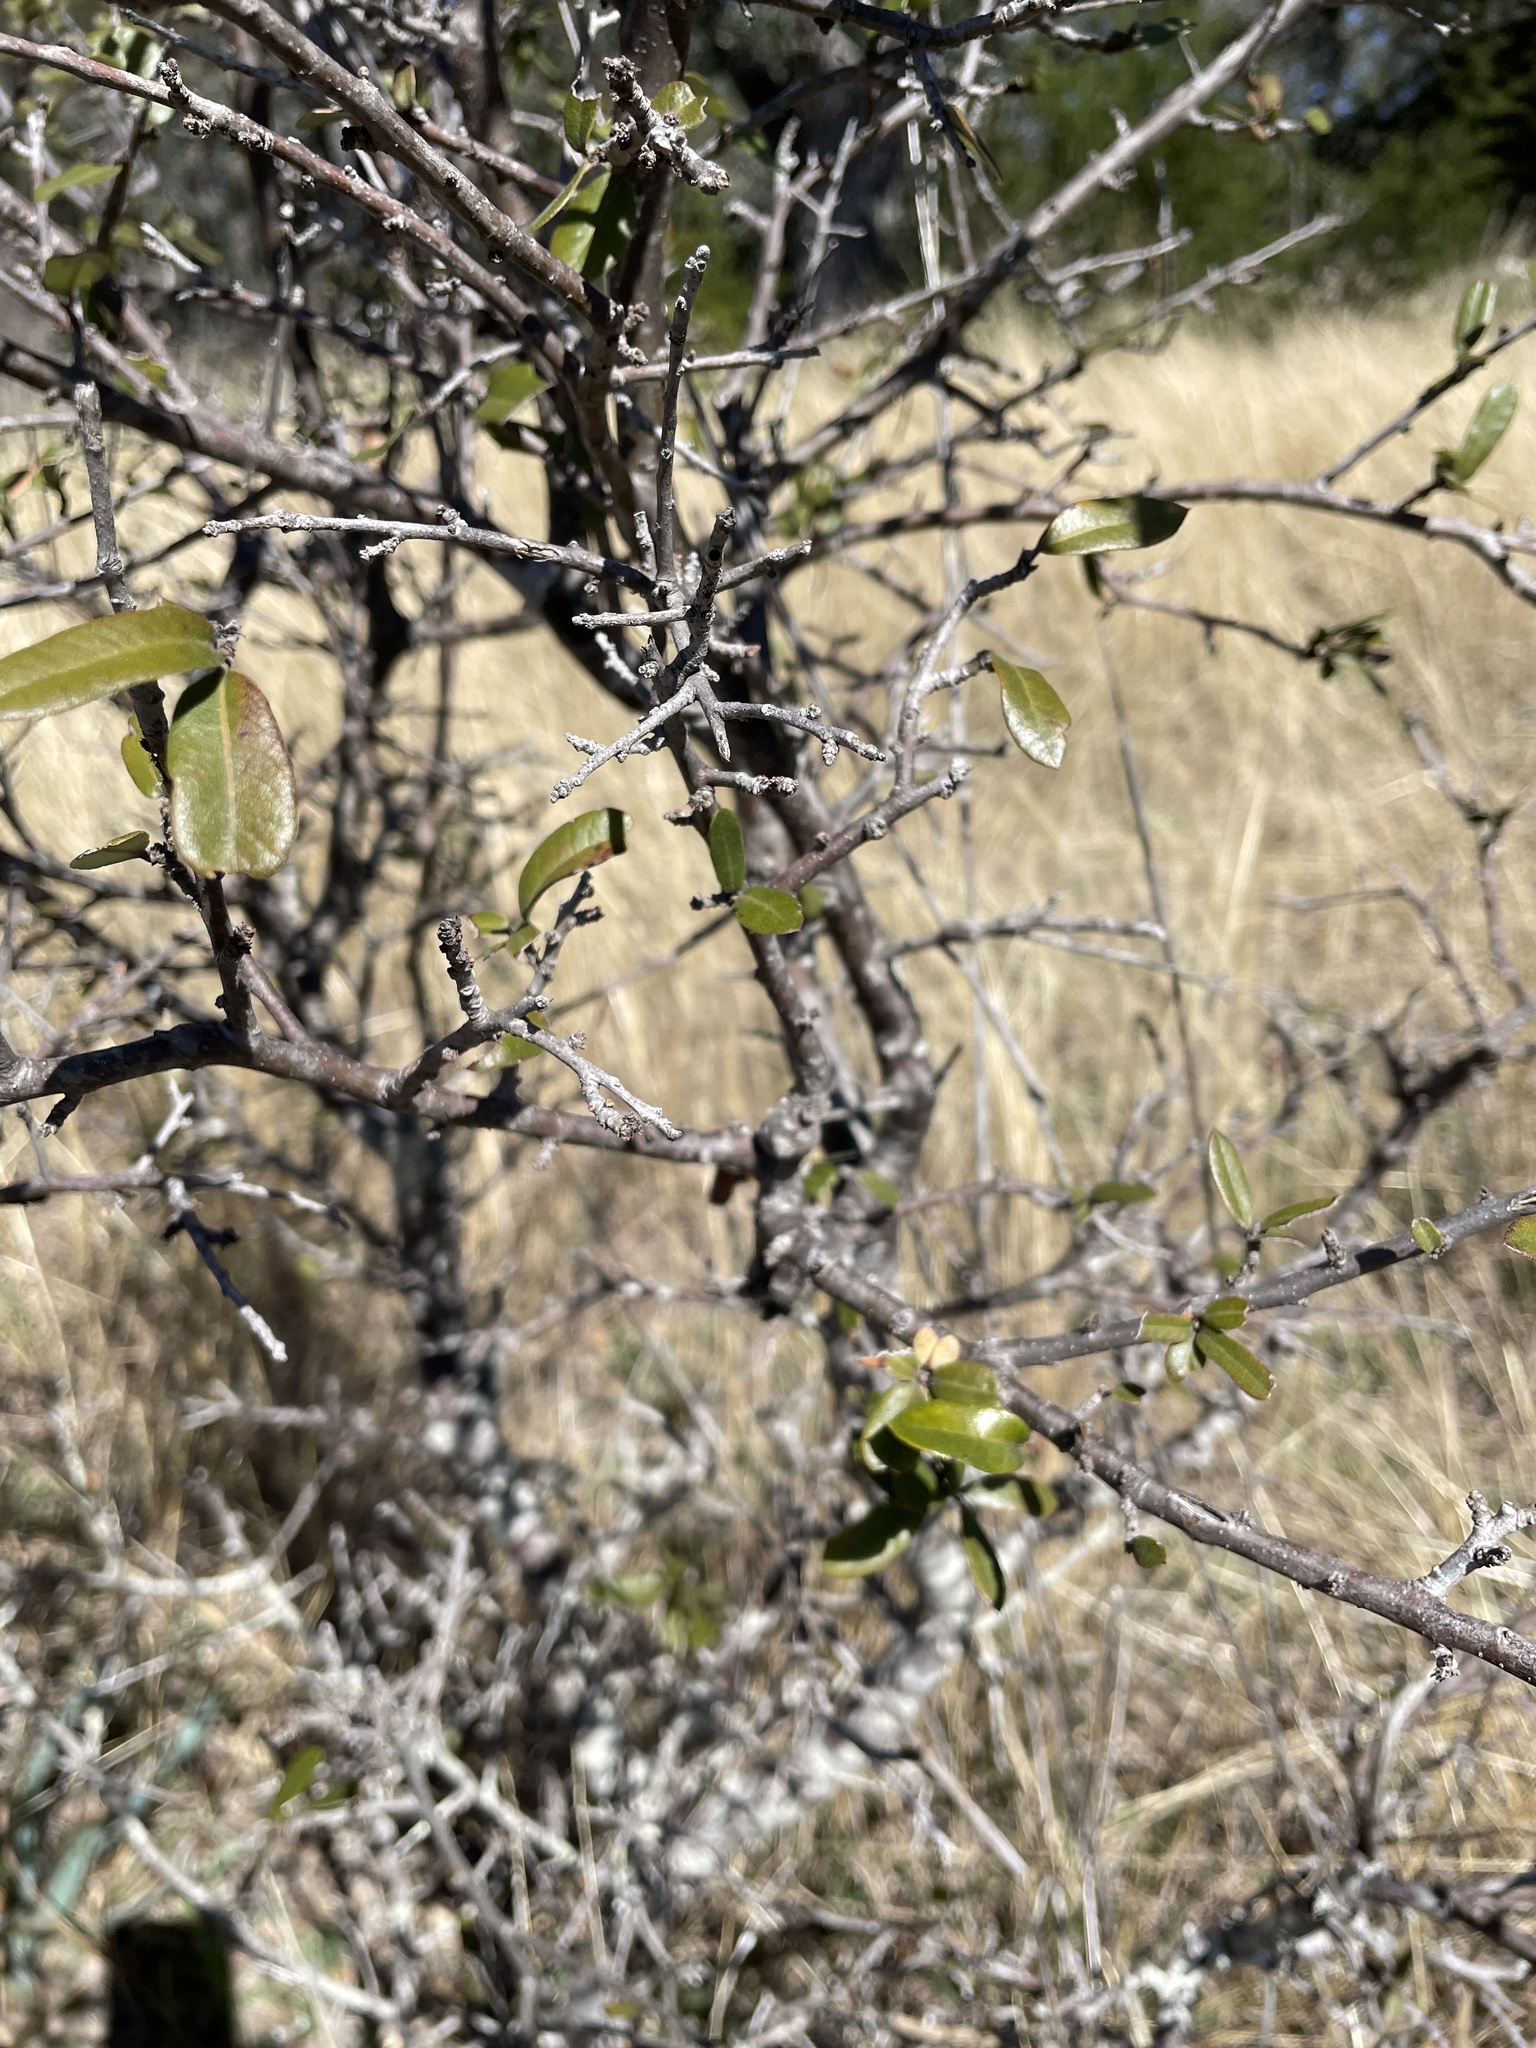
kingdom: Plantae
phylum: Tracheophyta
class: Magnoliopsida
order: Fagales
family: Fagaceae
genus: Quercus
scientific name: Quercus fusiformis
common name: Texas live oak
